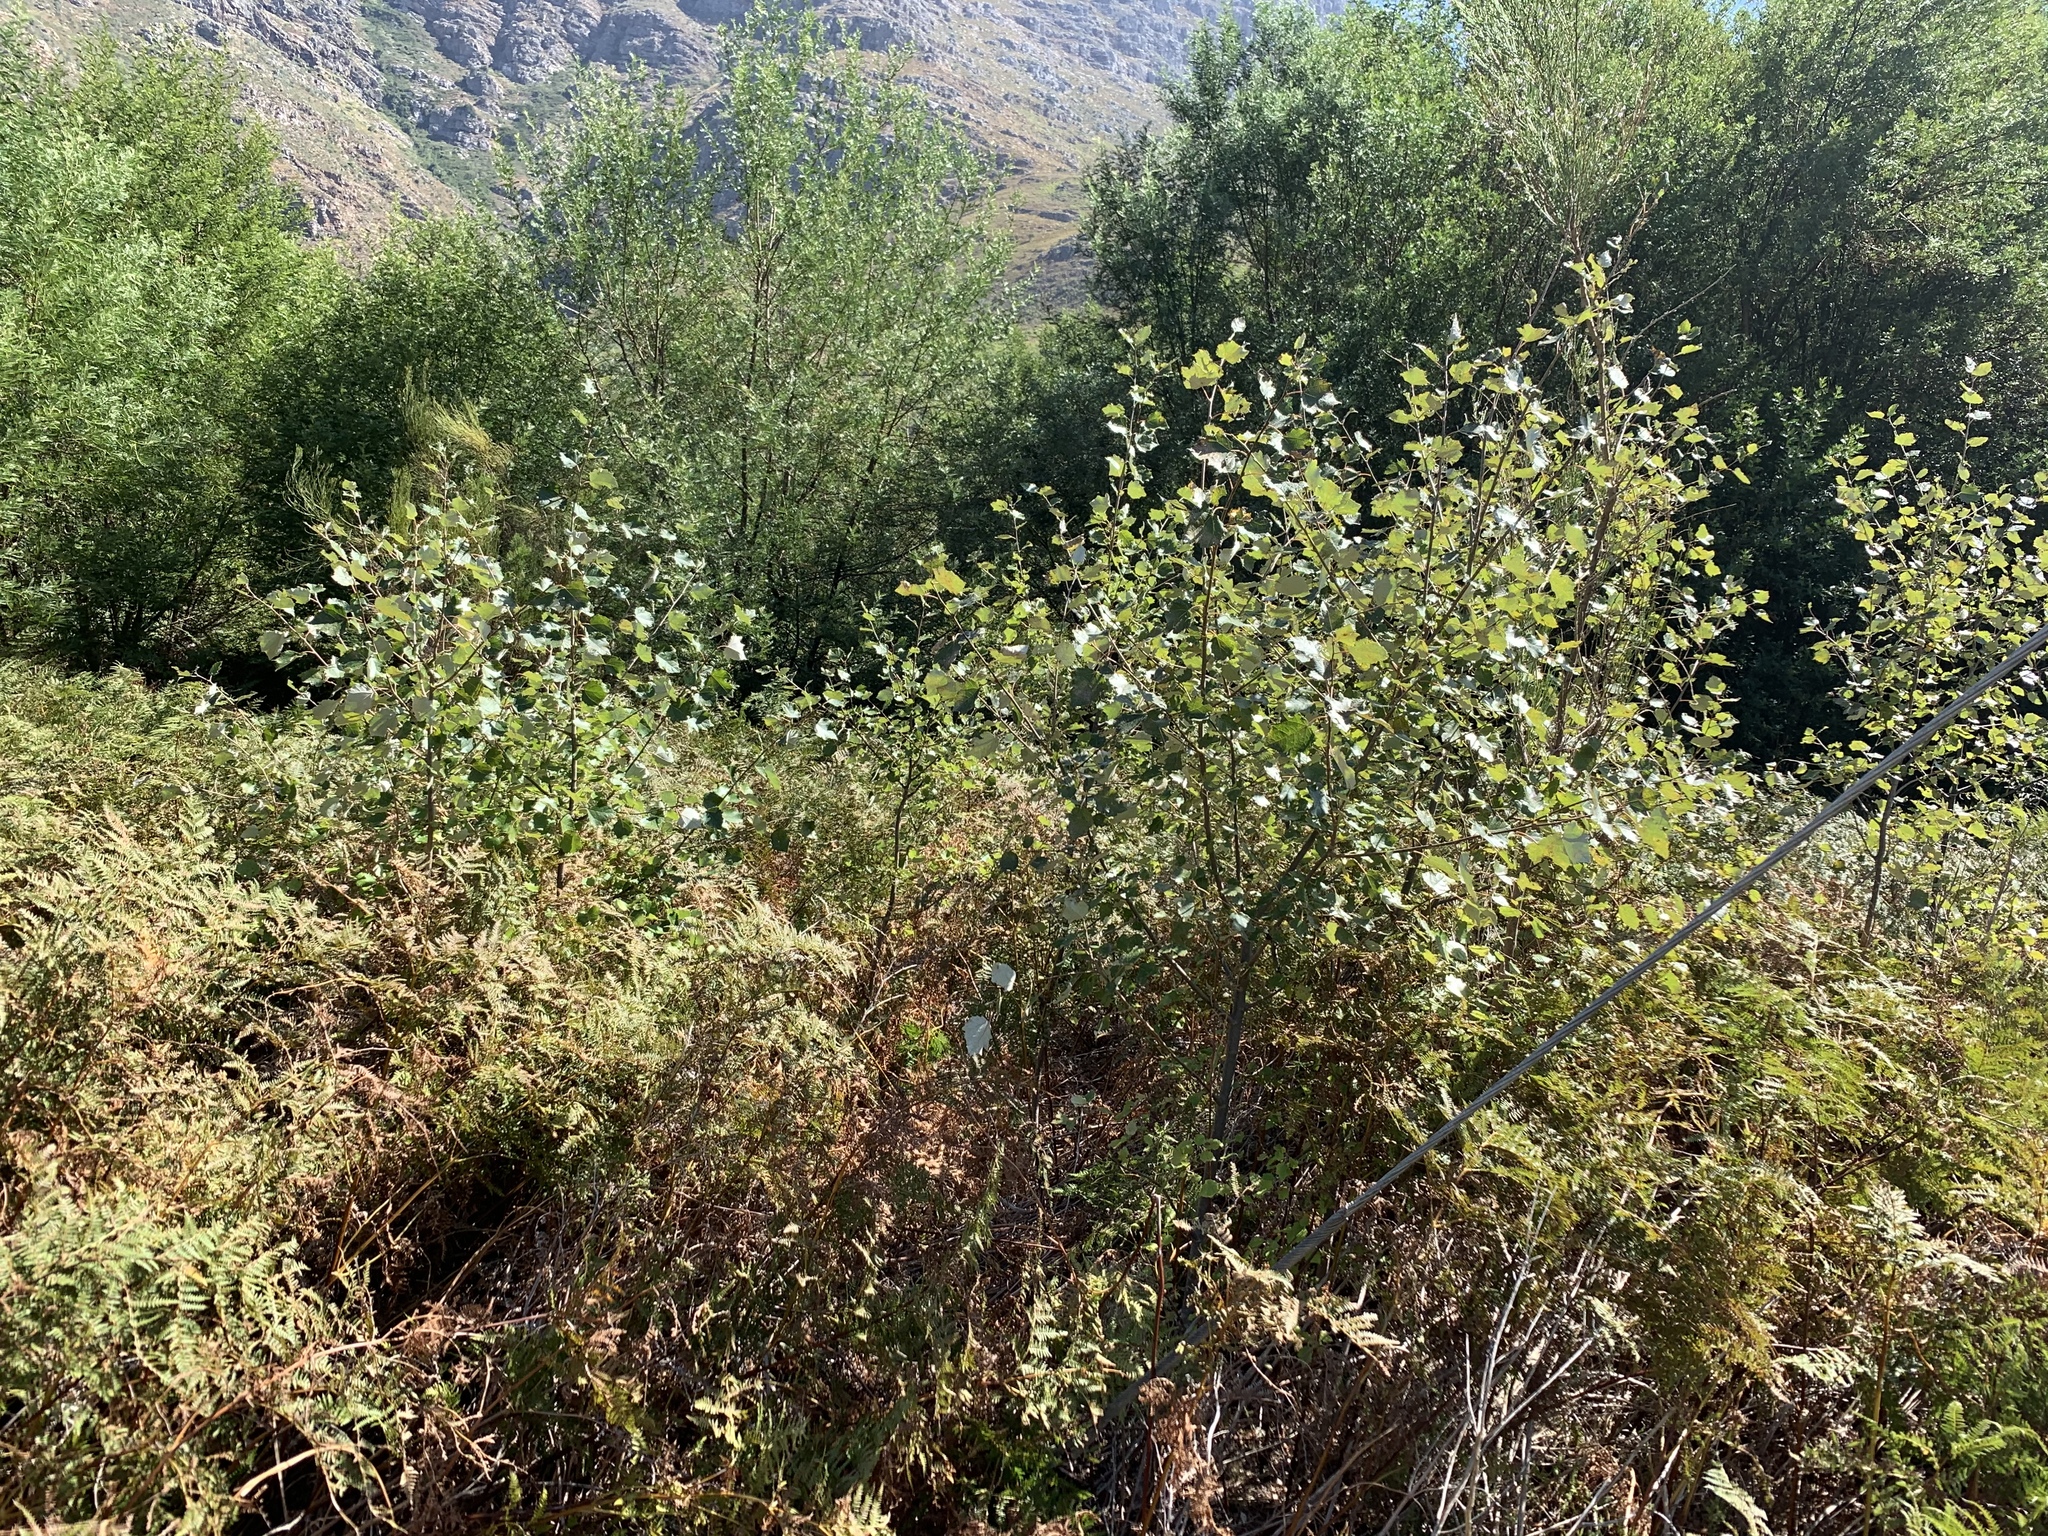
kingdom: Plantae
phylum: Tracheophyta
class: Magnoliopsida
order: Fabales
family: Fabaceae
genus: Virgilia
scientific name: Virgilia oroboides
